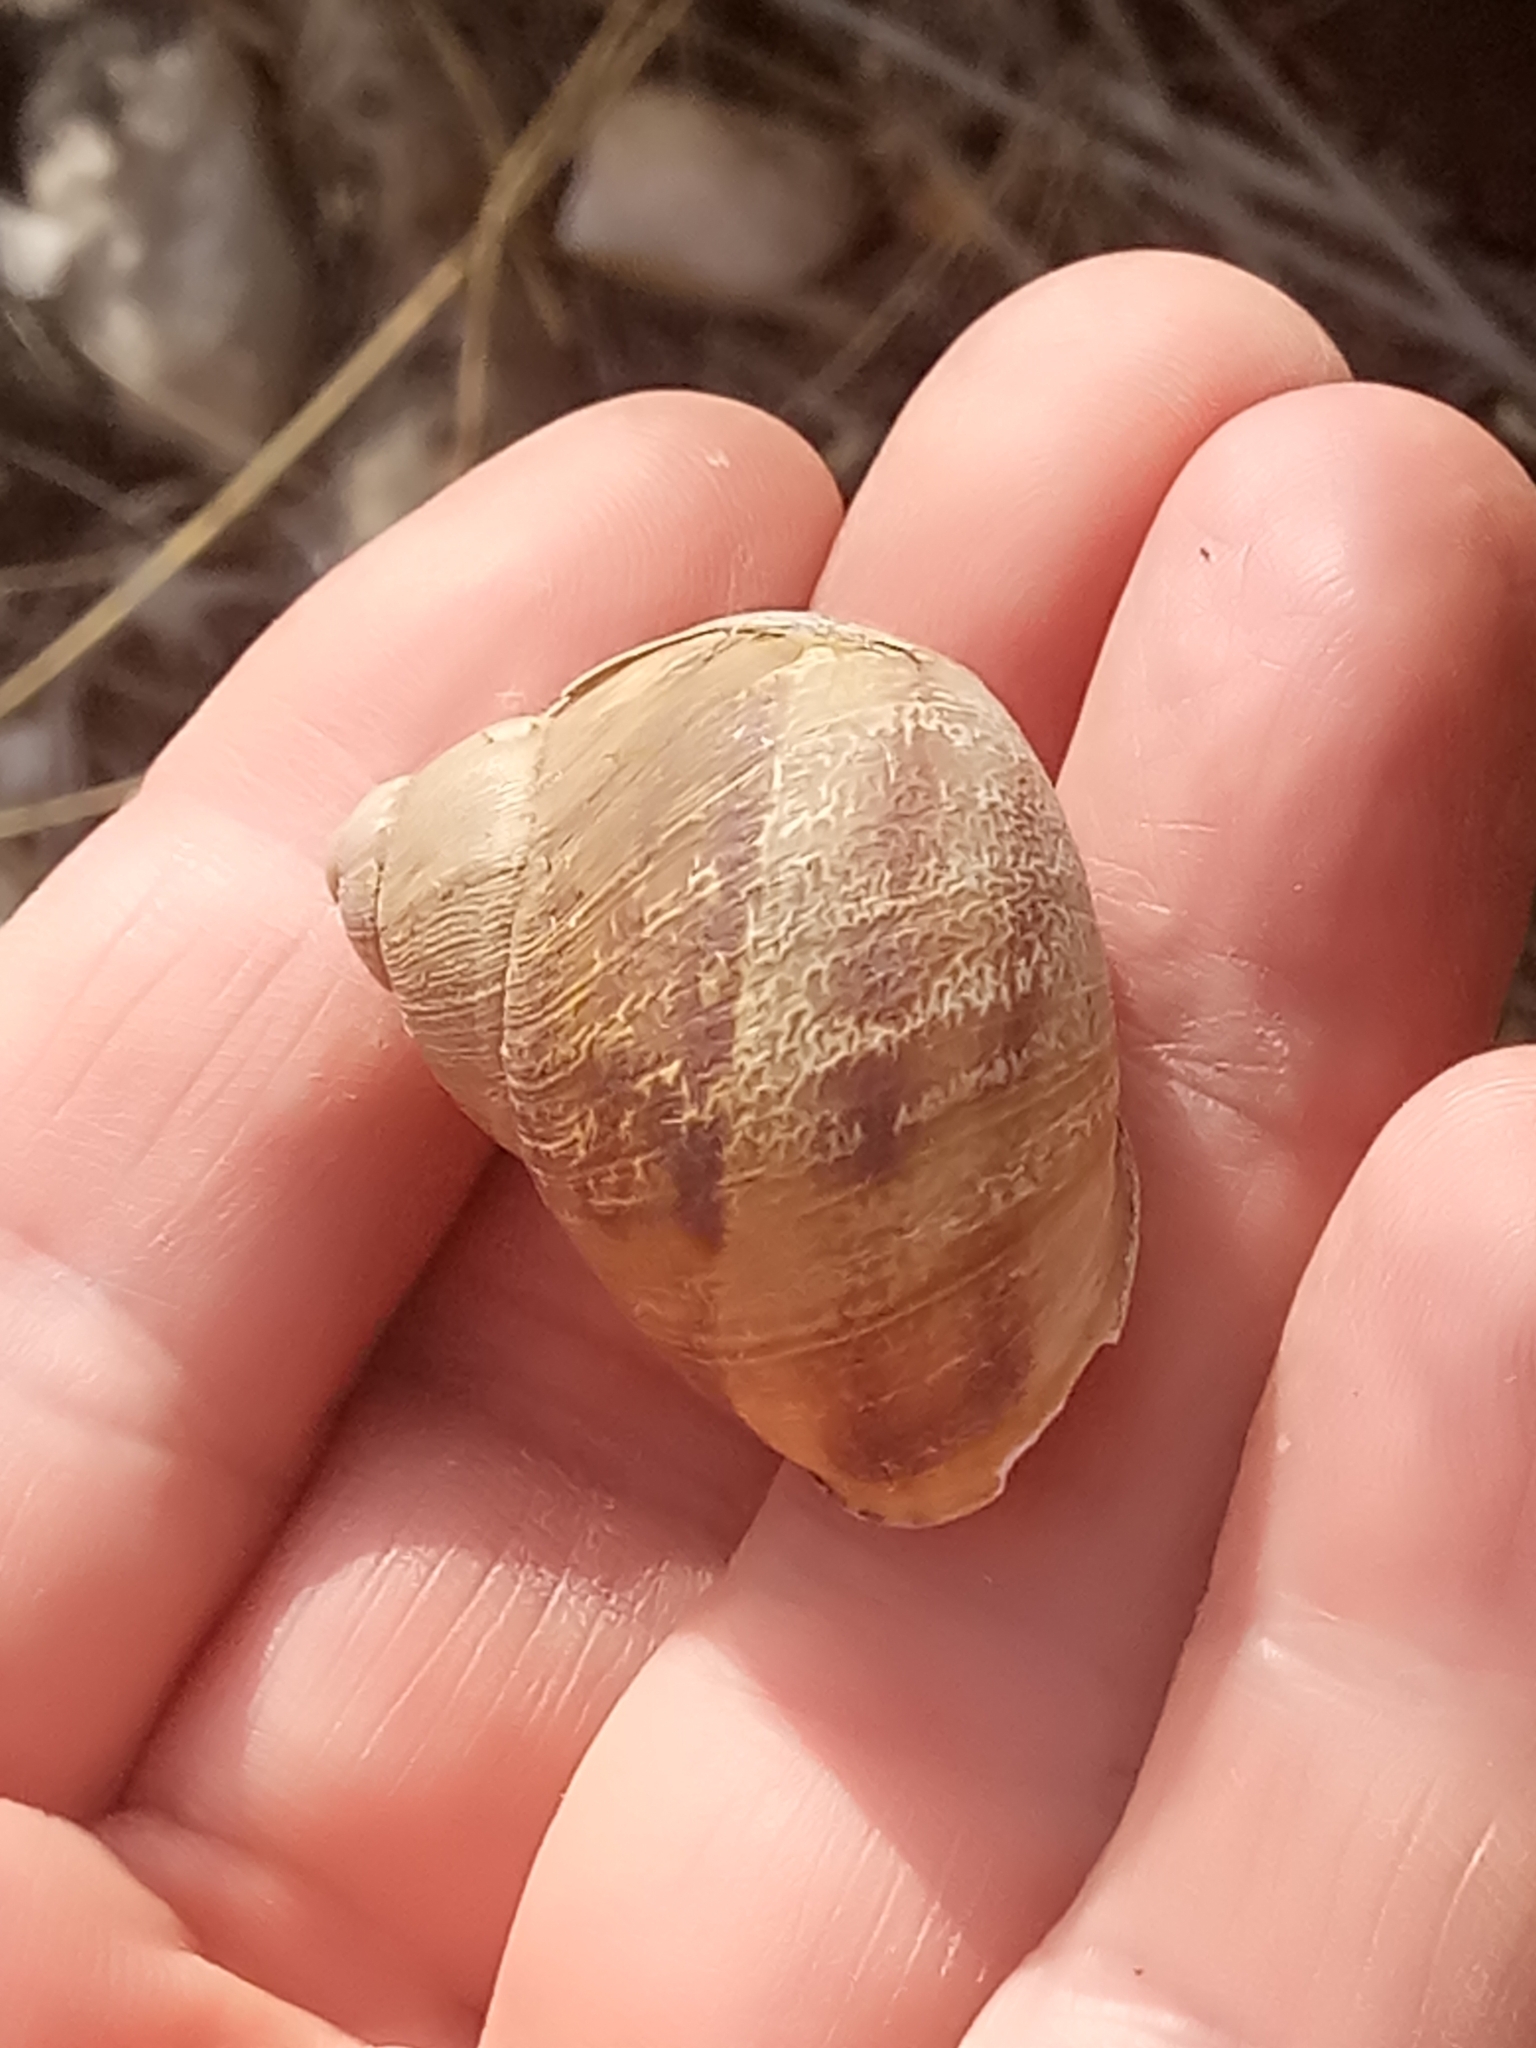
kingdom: Animalia
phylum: Mollusca
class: Gastropoda
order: Stylommatophora
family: Helicidae
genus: Cornu
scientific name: Cornu aspersum
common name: Brown garden snail
